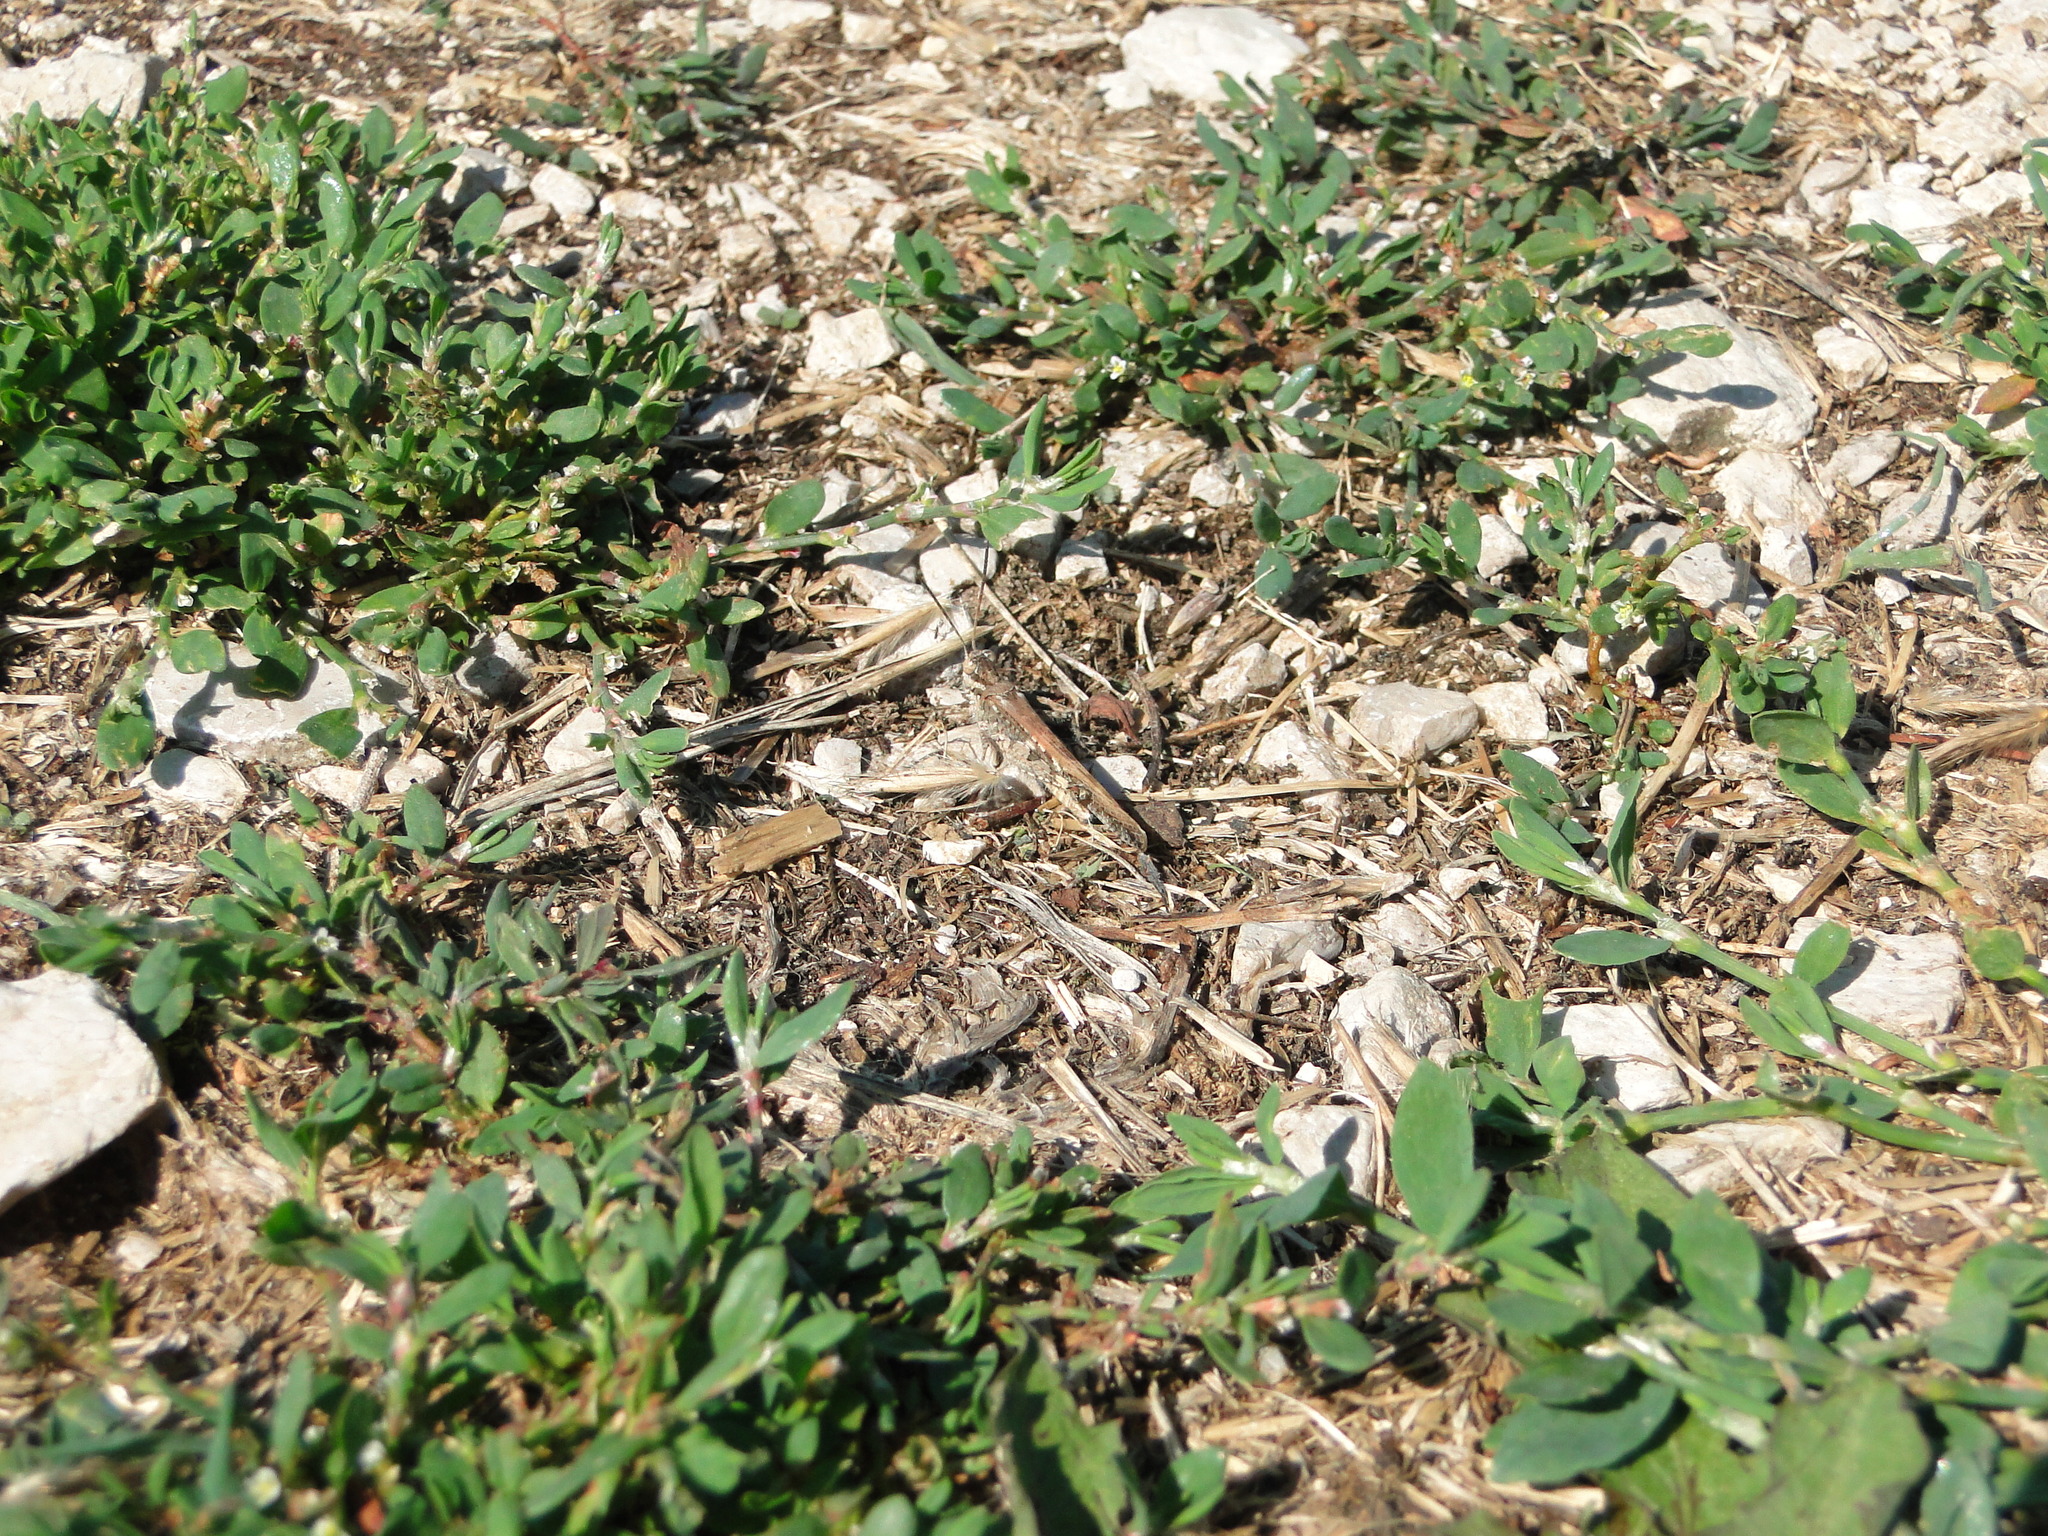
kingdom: Animalia
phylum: Arthropoda
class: Insecta
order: Orthoptera
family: Acrididae
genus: Acrotylus
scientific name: Acrotylus patruelis
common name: Slender burrowing grasshopper
